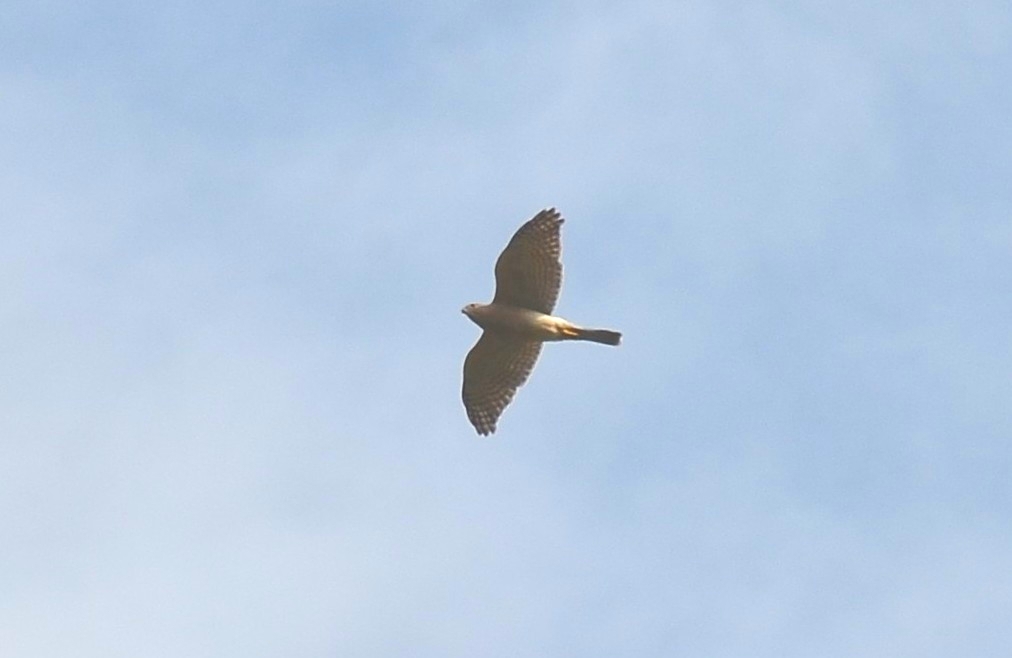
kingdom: Animalia
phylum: Chordata
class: Aves
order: Accipitriformes
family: Accipitridae
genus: Accipiter
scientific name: Accipiter badius
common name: Shikra
